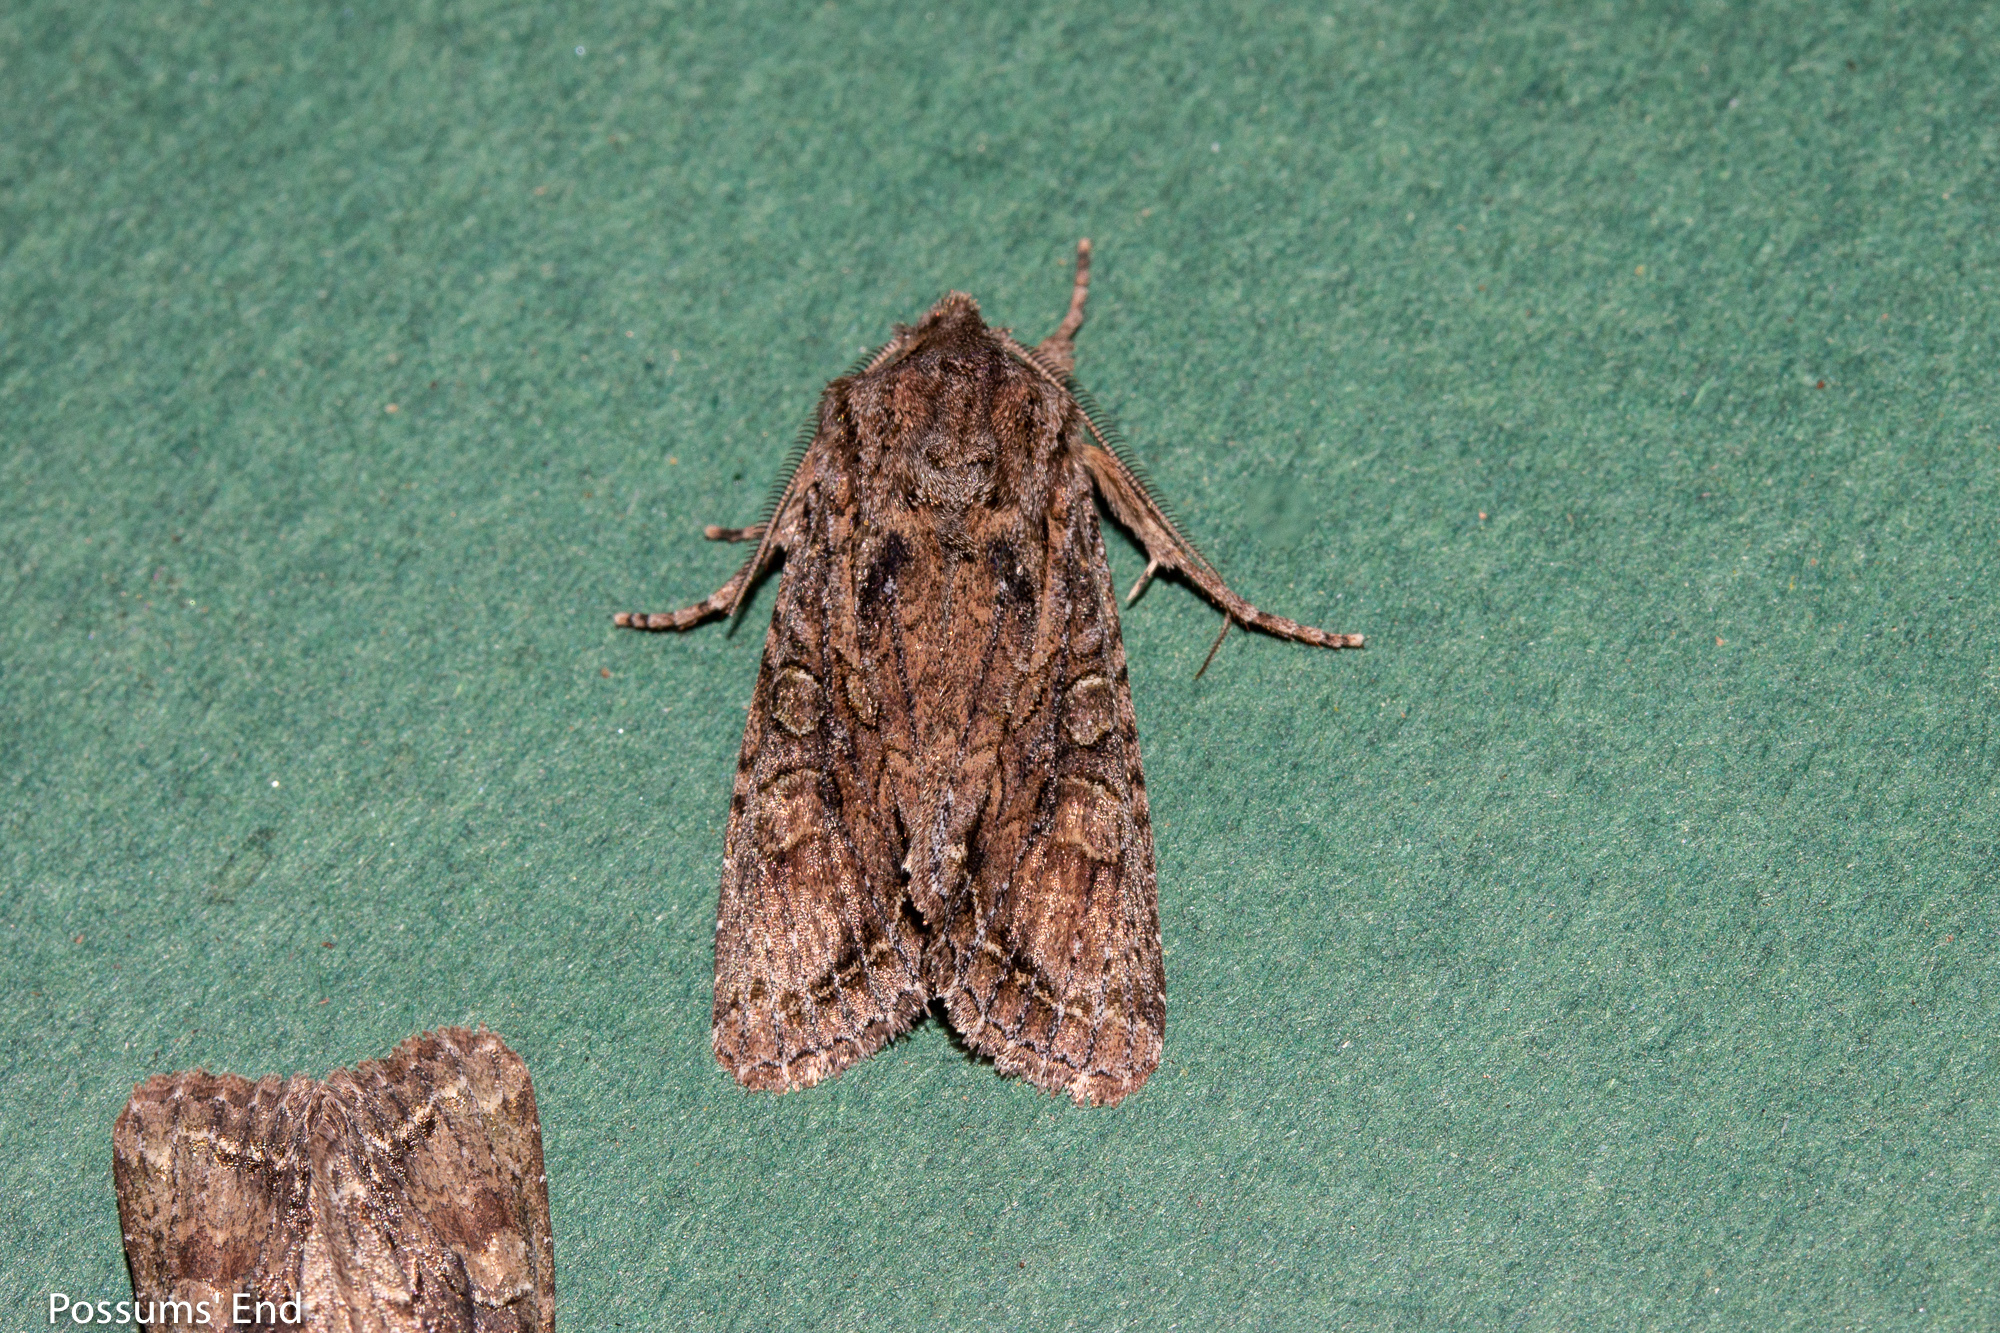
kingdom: Animalia
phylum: Arthropoda
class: Insecta
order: Lepidoptera
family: Noctuidae
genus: Ichneutica
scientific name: Ichneutica mutans
